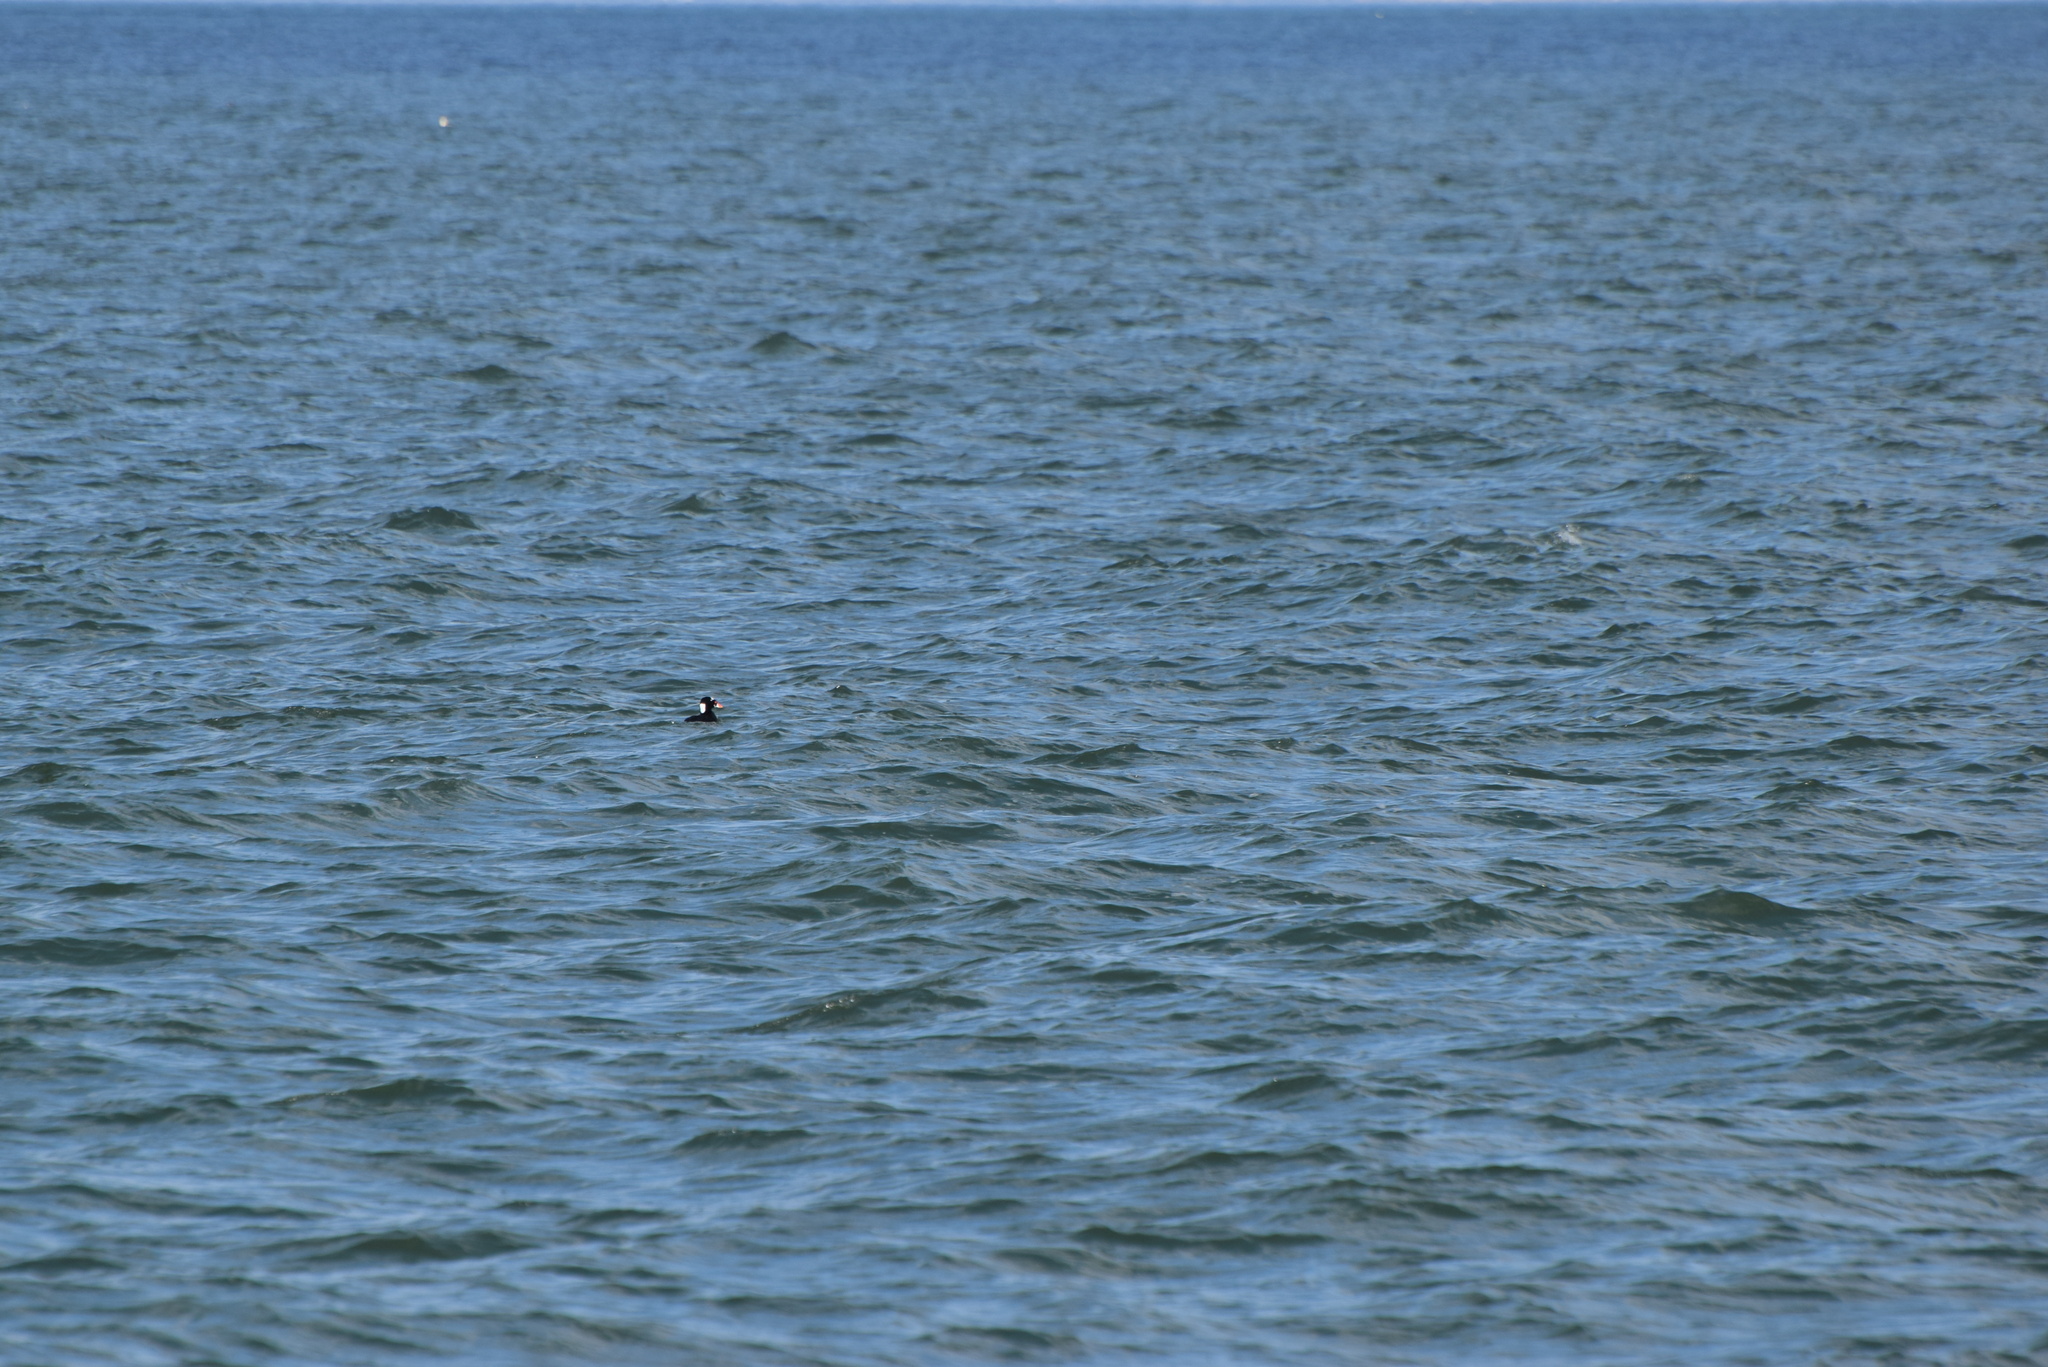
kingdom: Animalia
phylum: Chordata
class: Aves
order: Anseriformes
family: Anatidae
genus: Melanitta
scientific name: Melanitta perspicillata
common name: Surf scoter
